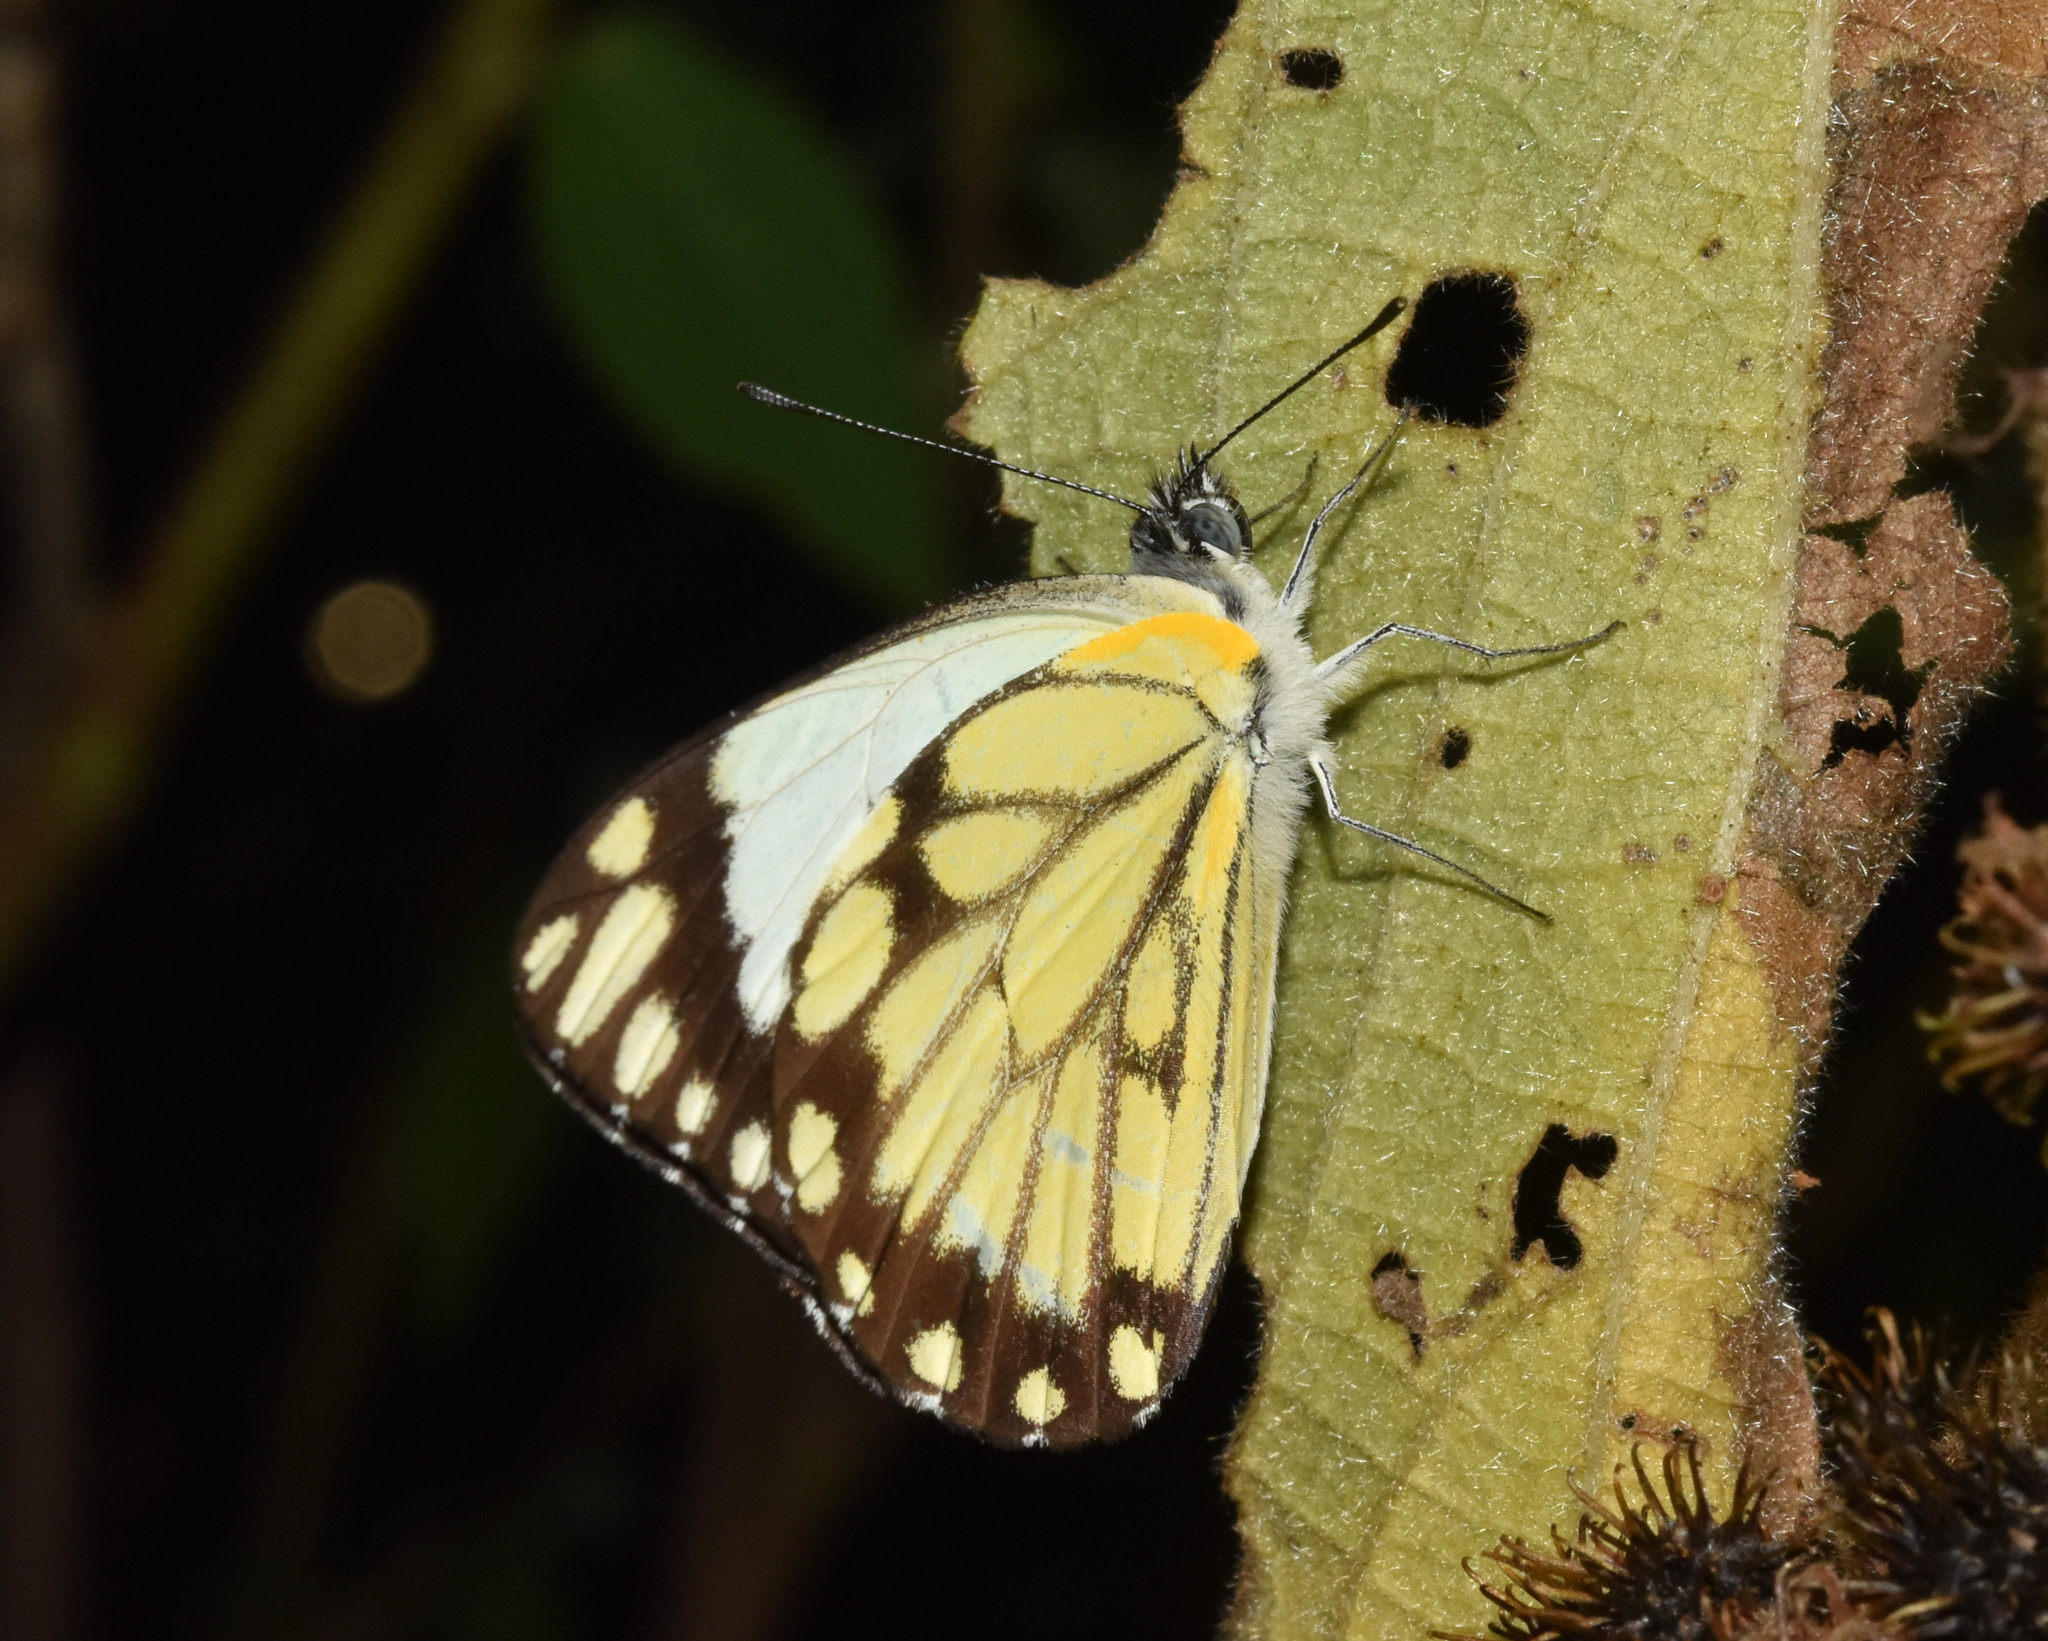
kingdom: Animalia
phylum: Arthropoda
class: Insecta
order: Lepidoptera
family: Pieridae
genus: Belenois
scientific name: Belenois creona
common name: African caper white
